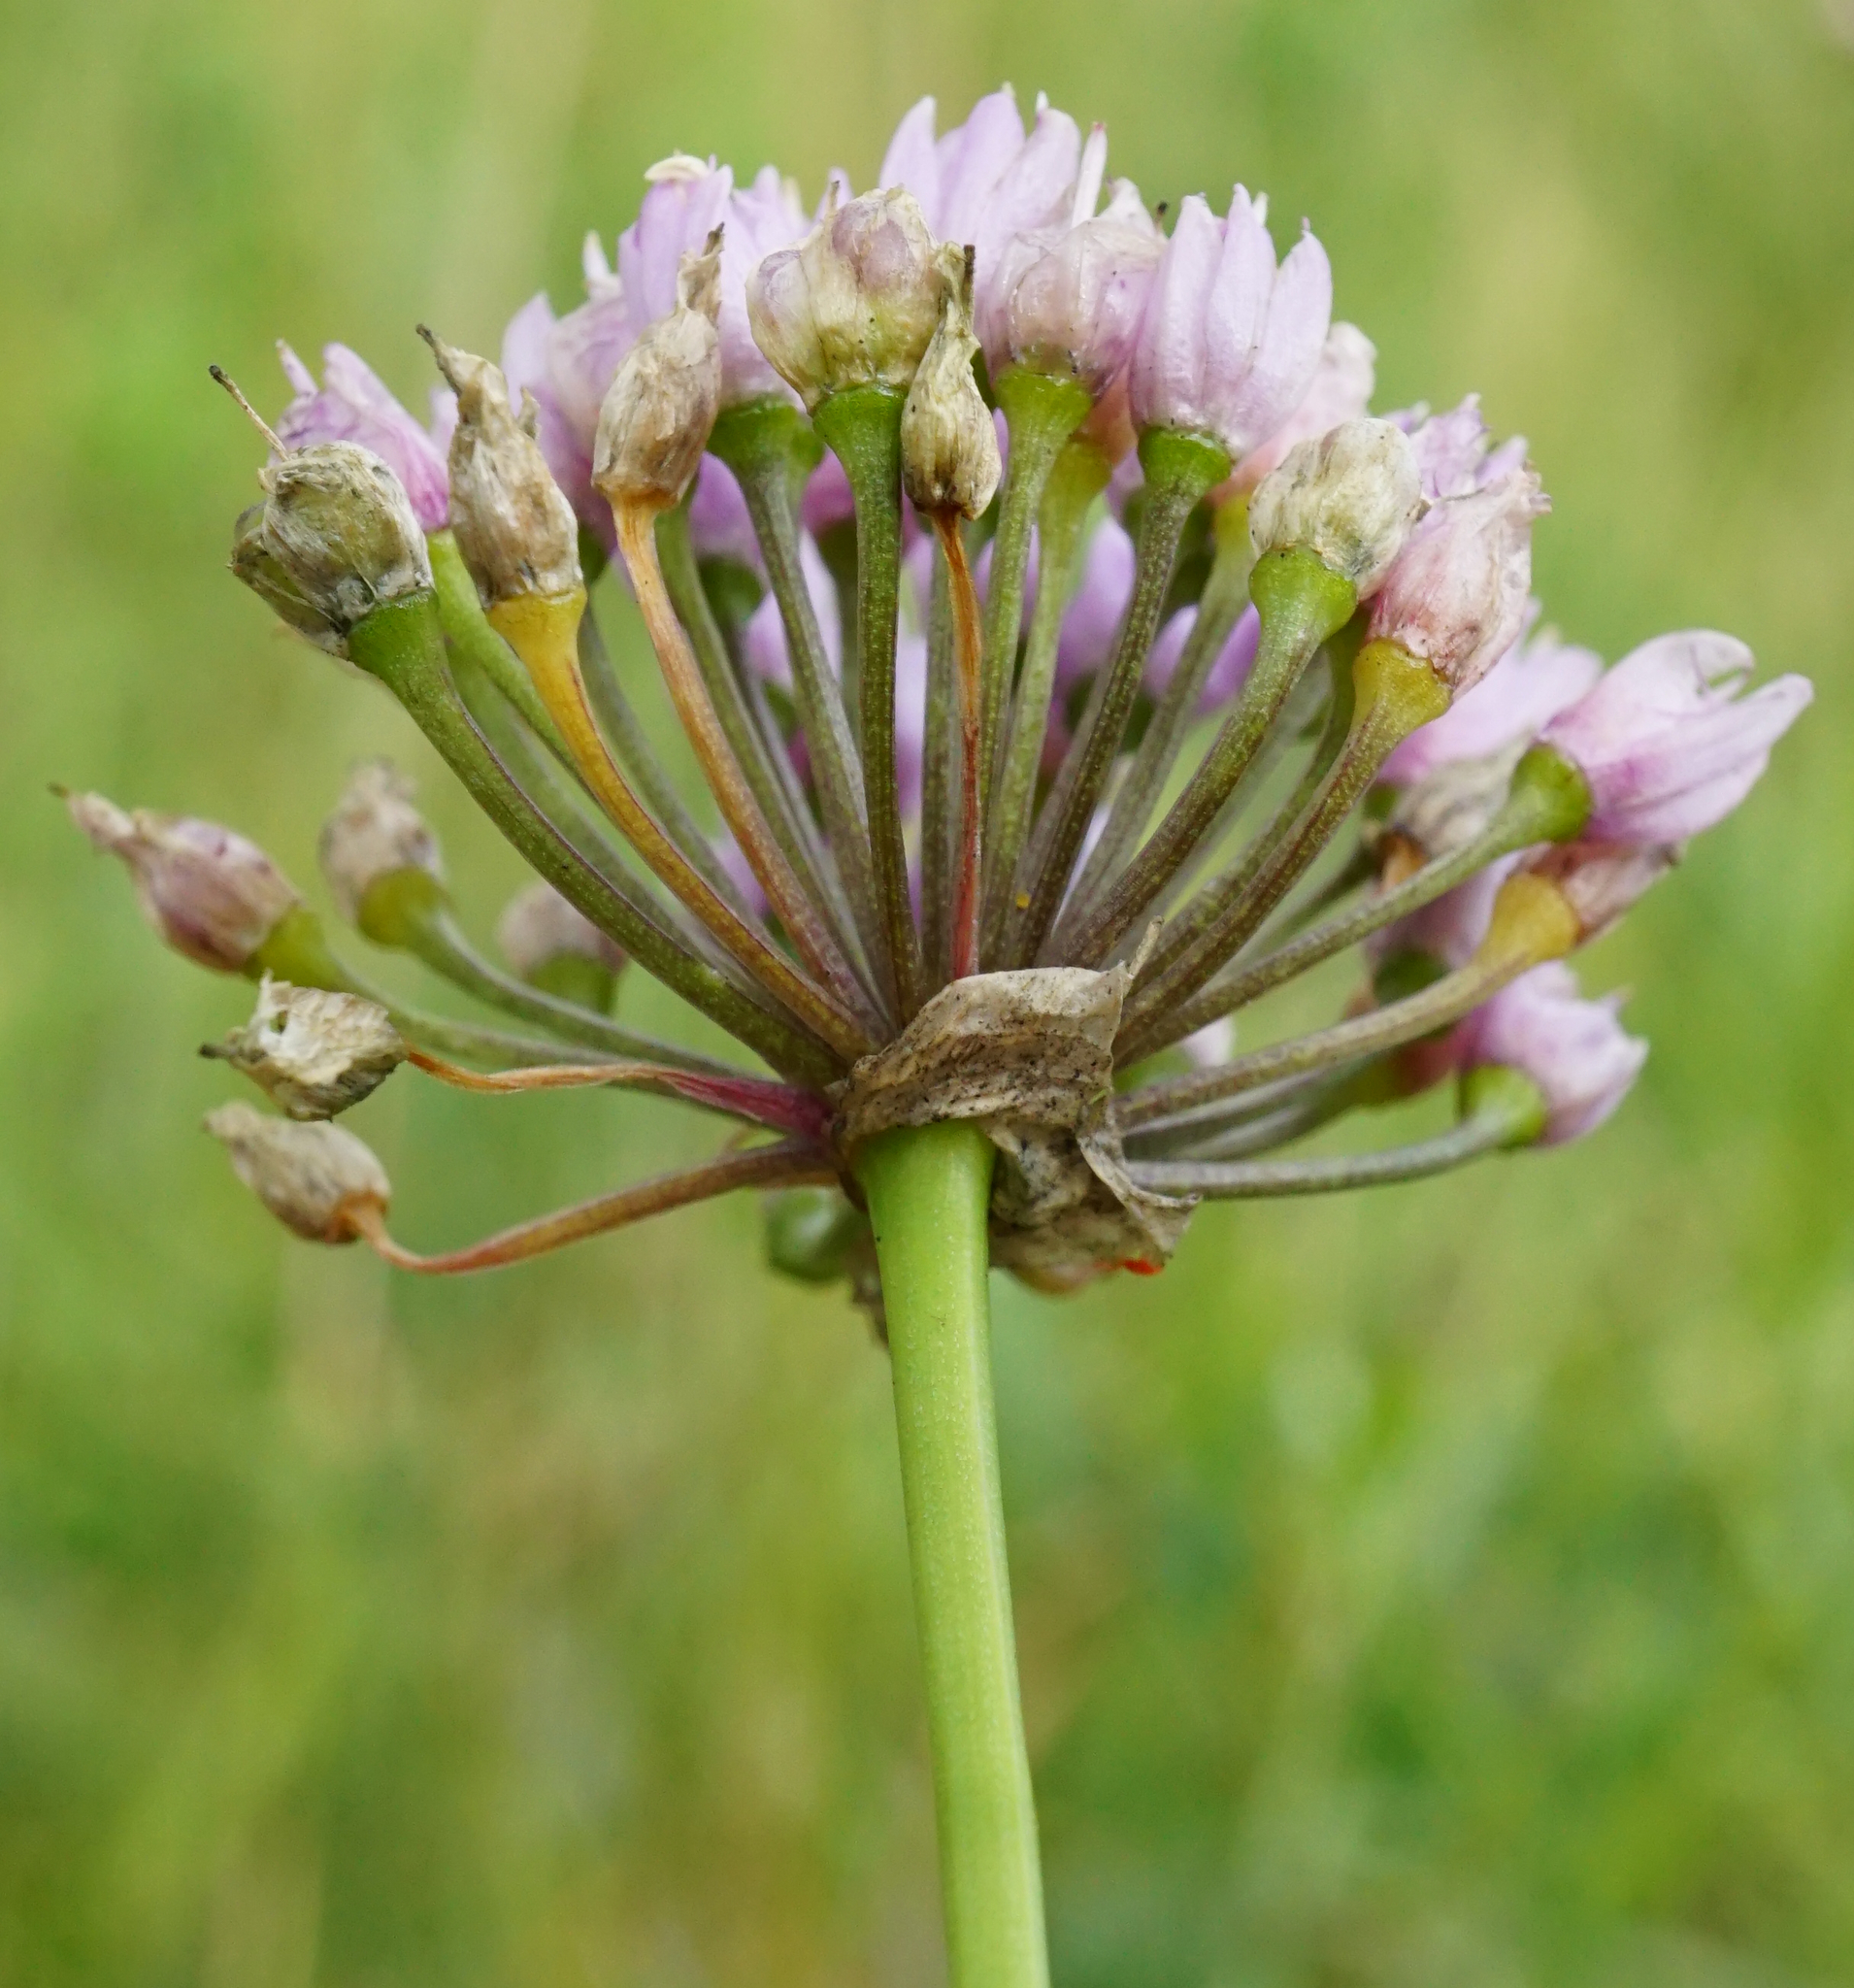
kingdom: Plantae
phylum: Tracheophyta
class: Liliopsida
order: Asparagales
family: Amaryllidaceae
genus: Allium
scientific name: Allium angulosum
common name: Mouse garlic
